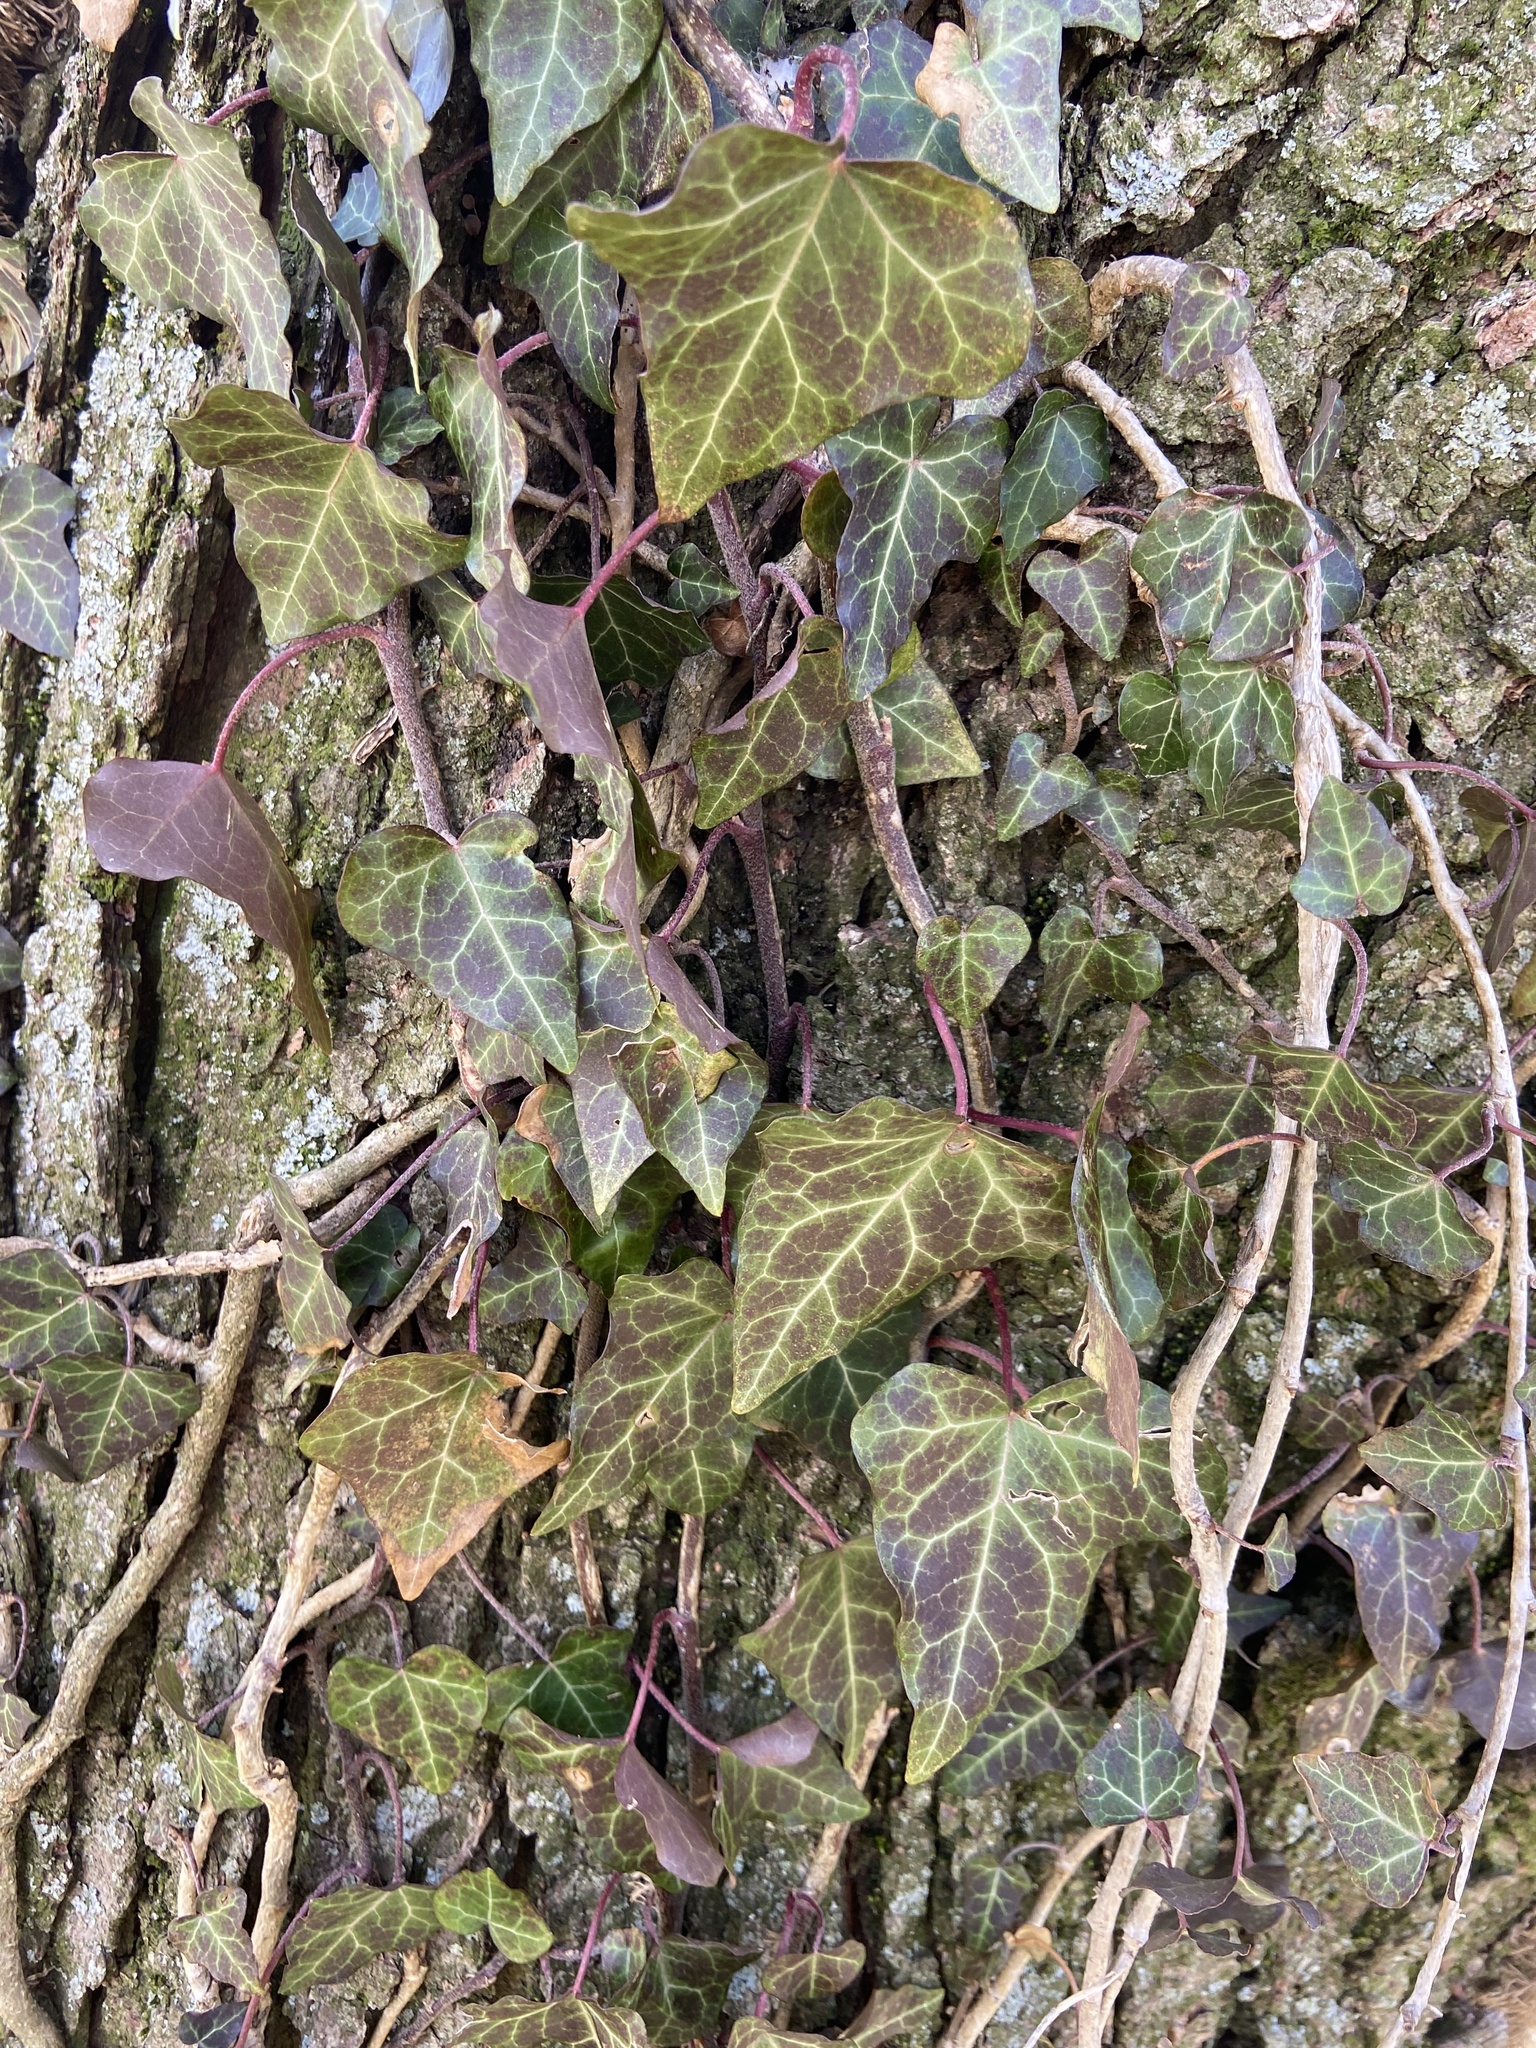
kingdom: Plantae
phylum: Tracheophyta
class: Magnoliopsida
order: Apiales
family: Araliaceae
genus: Hedera
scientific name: Hedera helix
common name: Ivy
